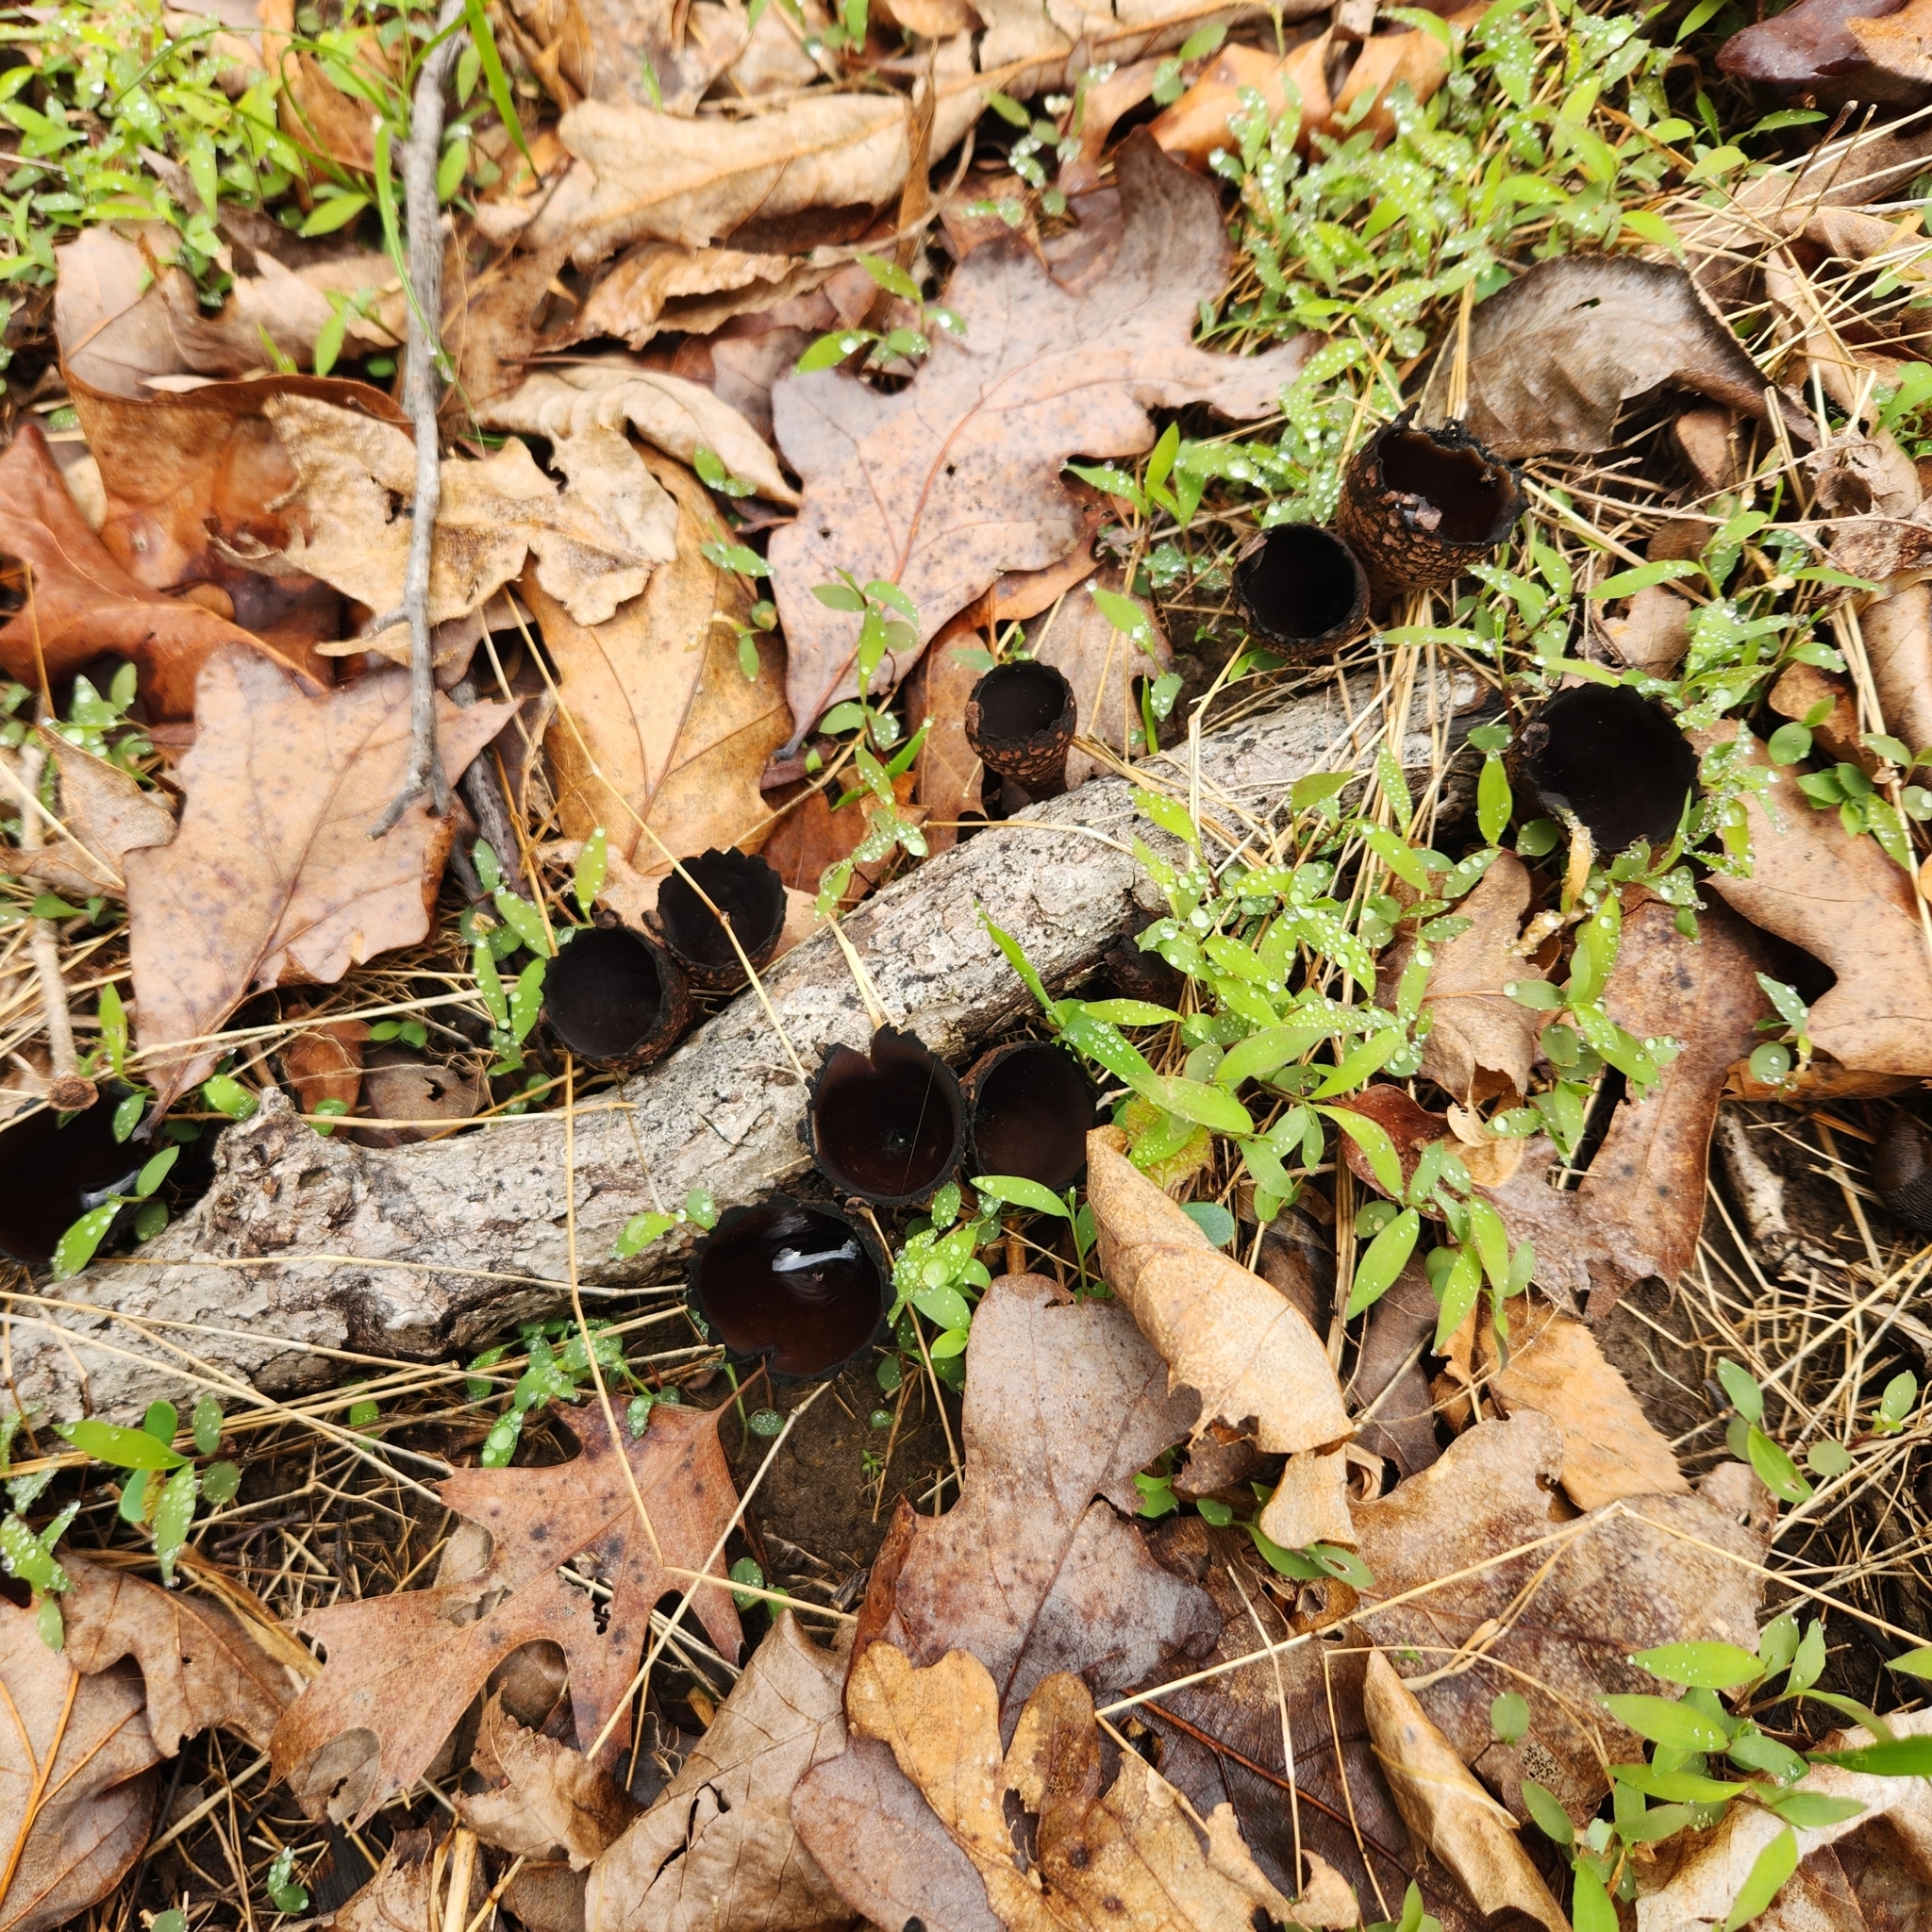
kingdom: Fungi
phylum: Ascomycota
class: Pezizomycetes
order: Pezizales
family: Sarcosomataceae
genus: Urnula
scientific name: Urnula craterium
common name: Devil's urn
